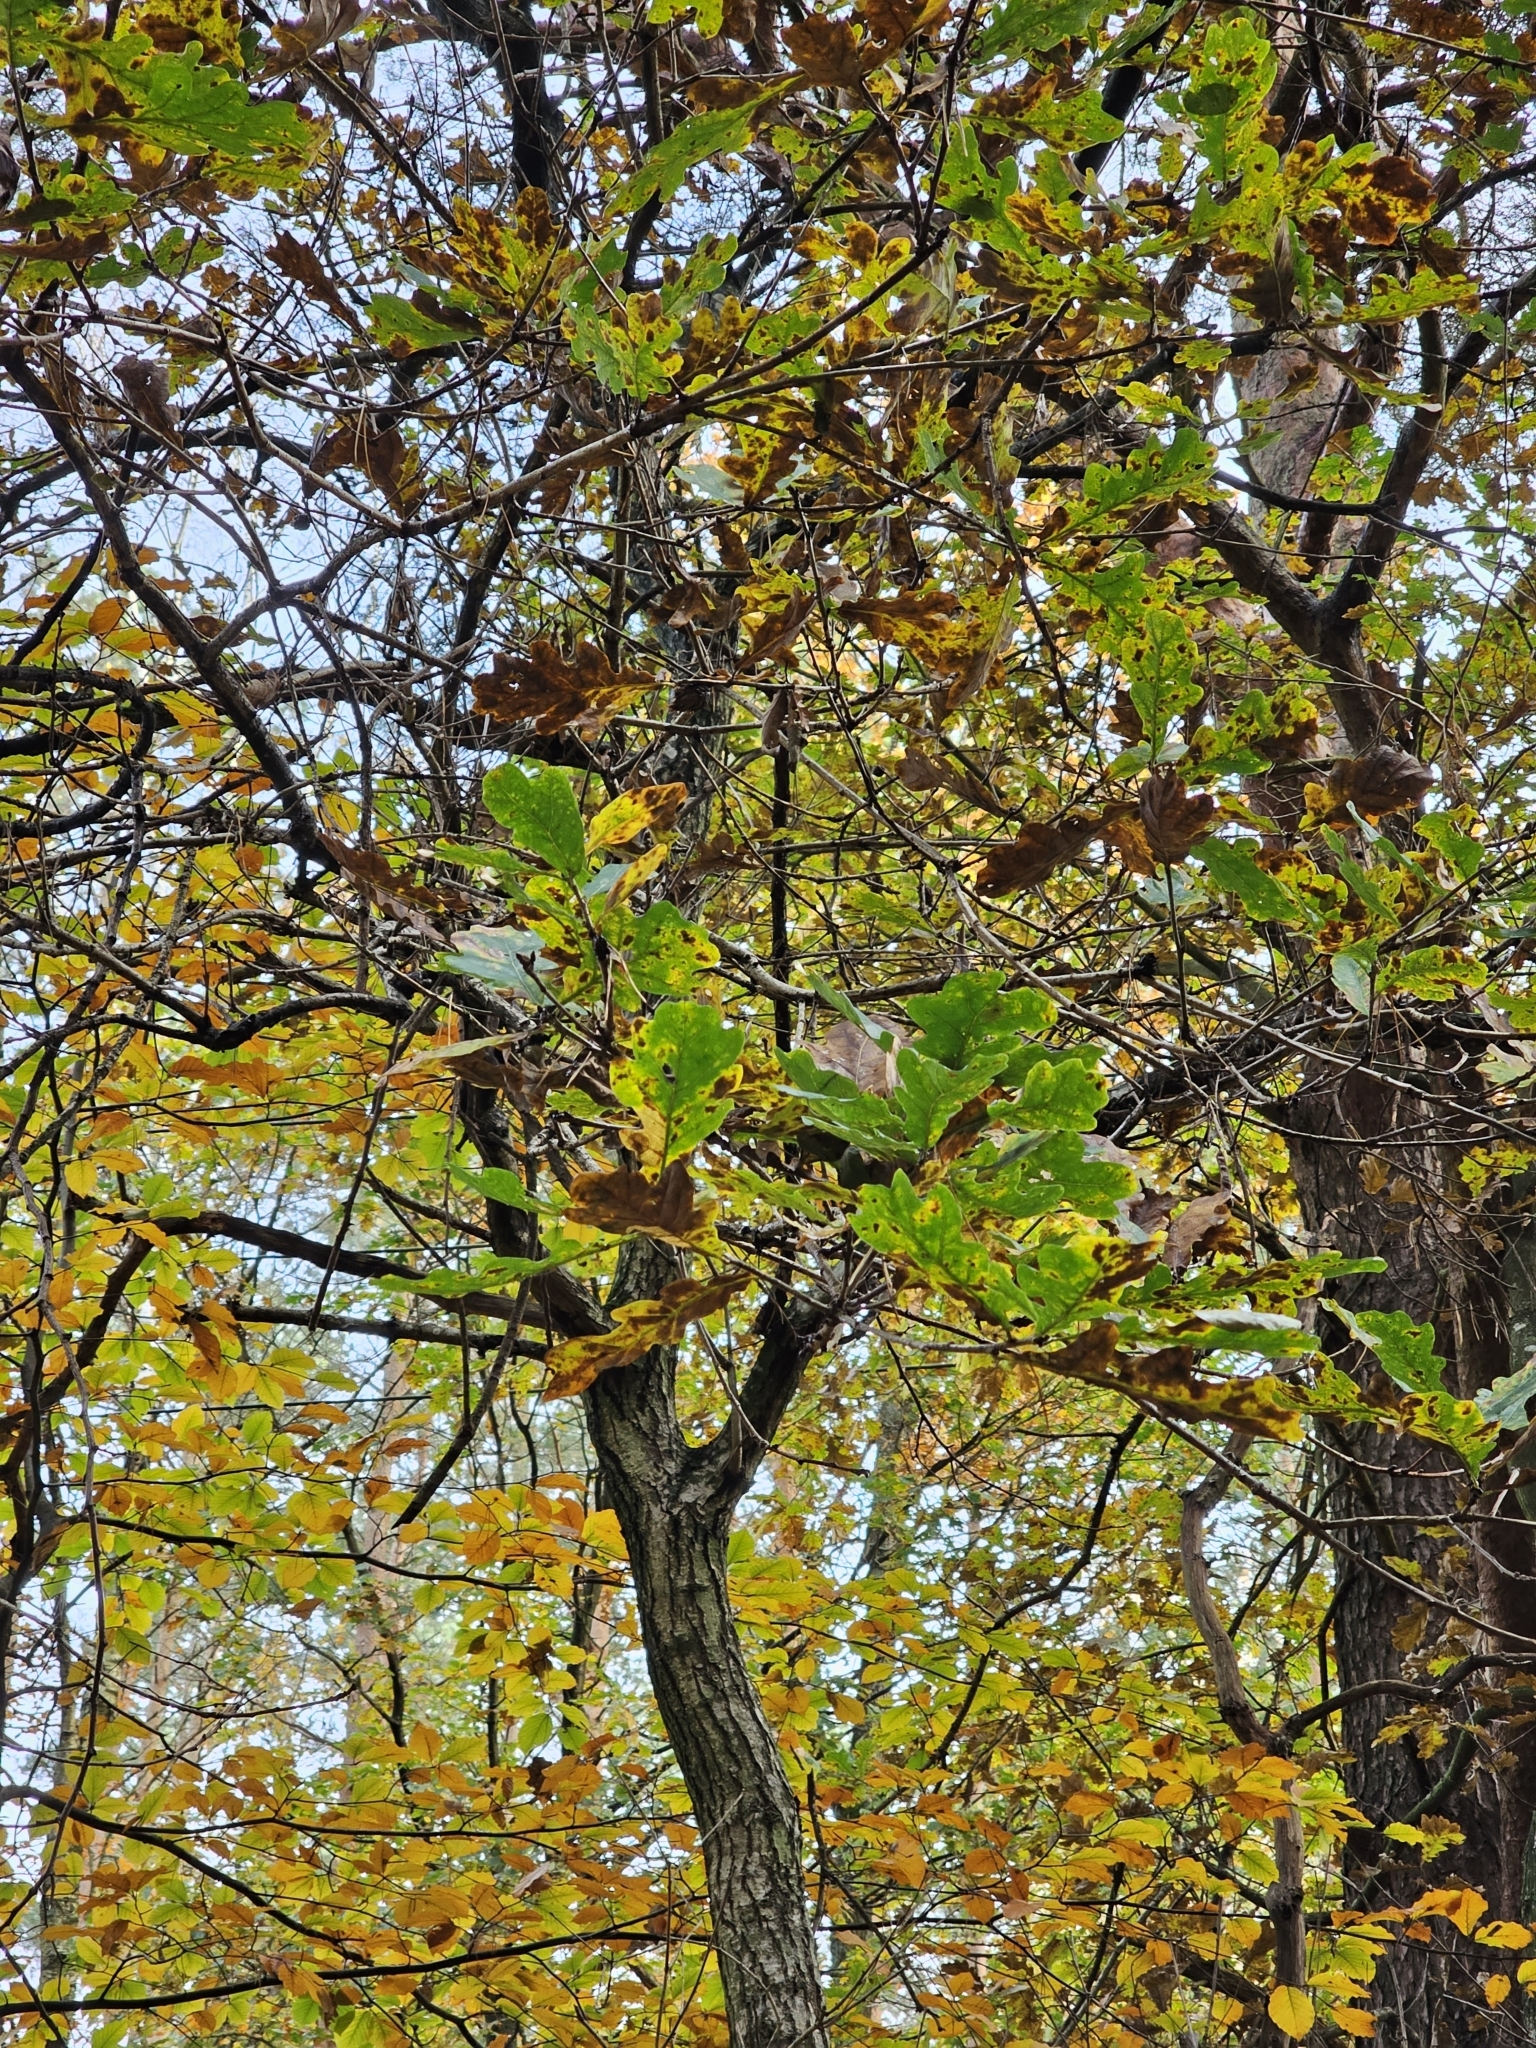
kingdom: Plantae
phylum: Tracheophyta
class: Magnoliopsida
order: Fagales
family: Fagaceae
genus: Quercus
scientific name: Quercus robur
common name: Pedunculate oak
